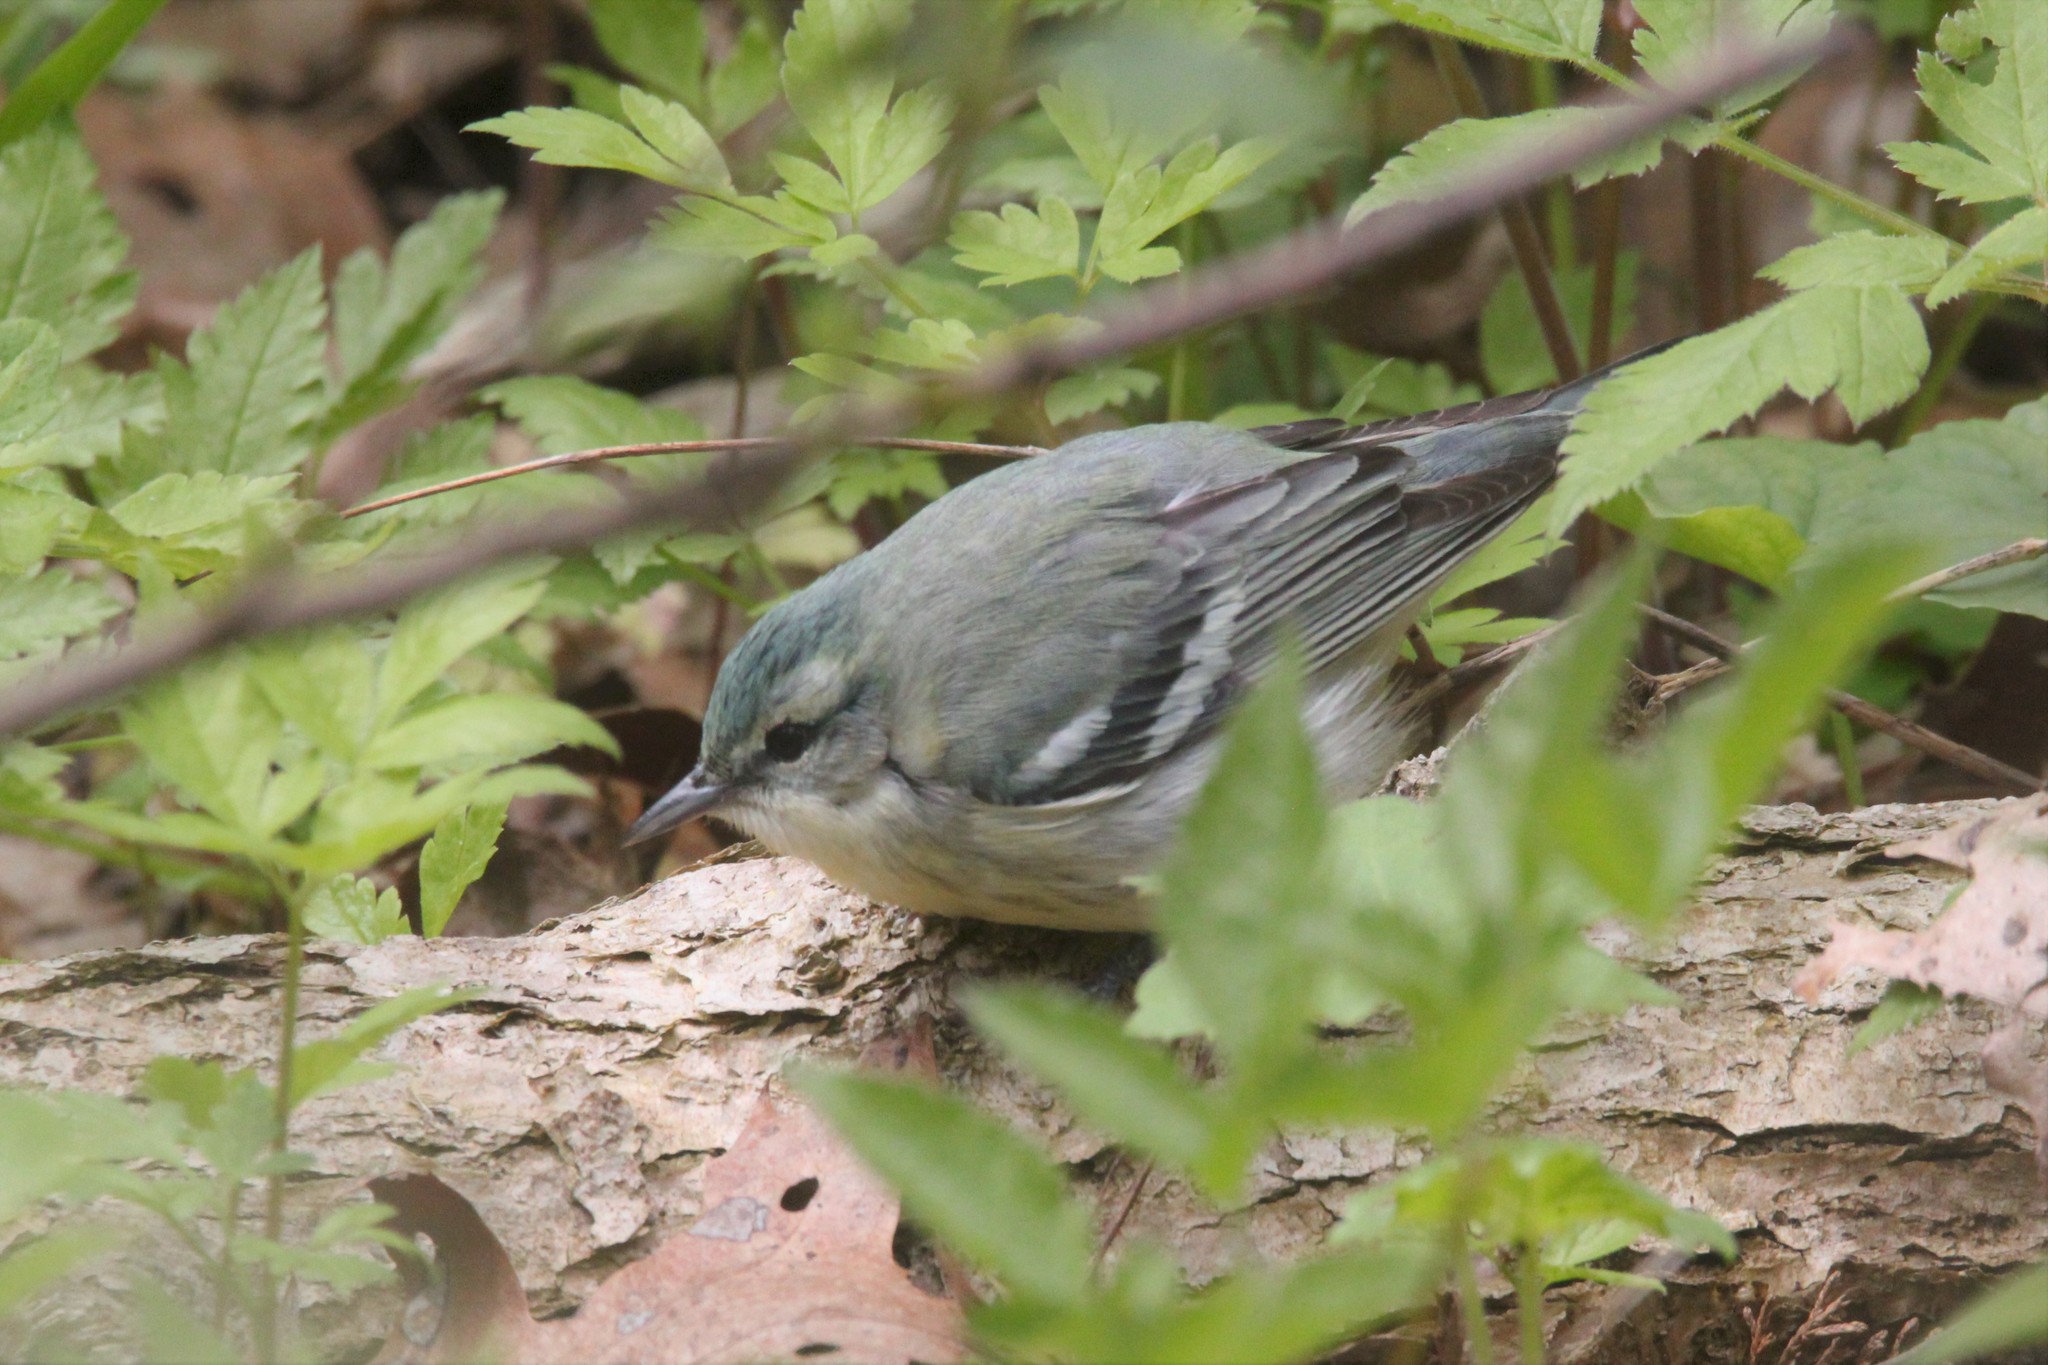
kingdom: Animalia
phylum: Chordata
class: Aves
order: Passeriformes
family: Parulidae
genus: Setophaga
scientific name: Setophaga cerulea
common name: Cerulean warbler
